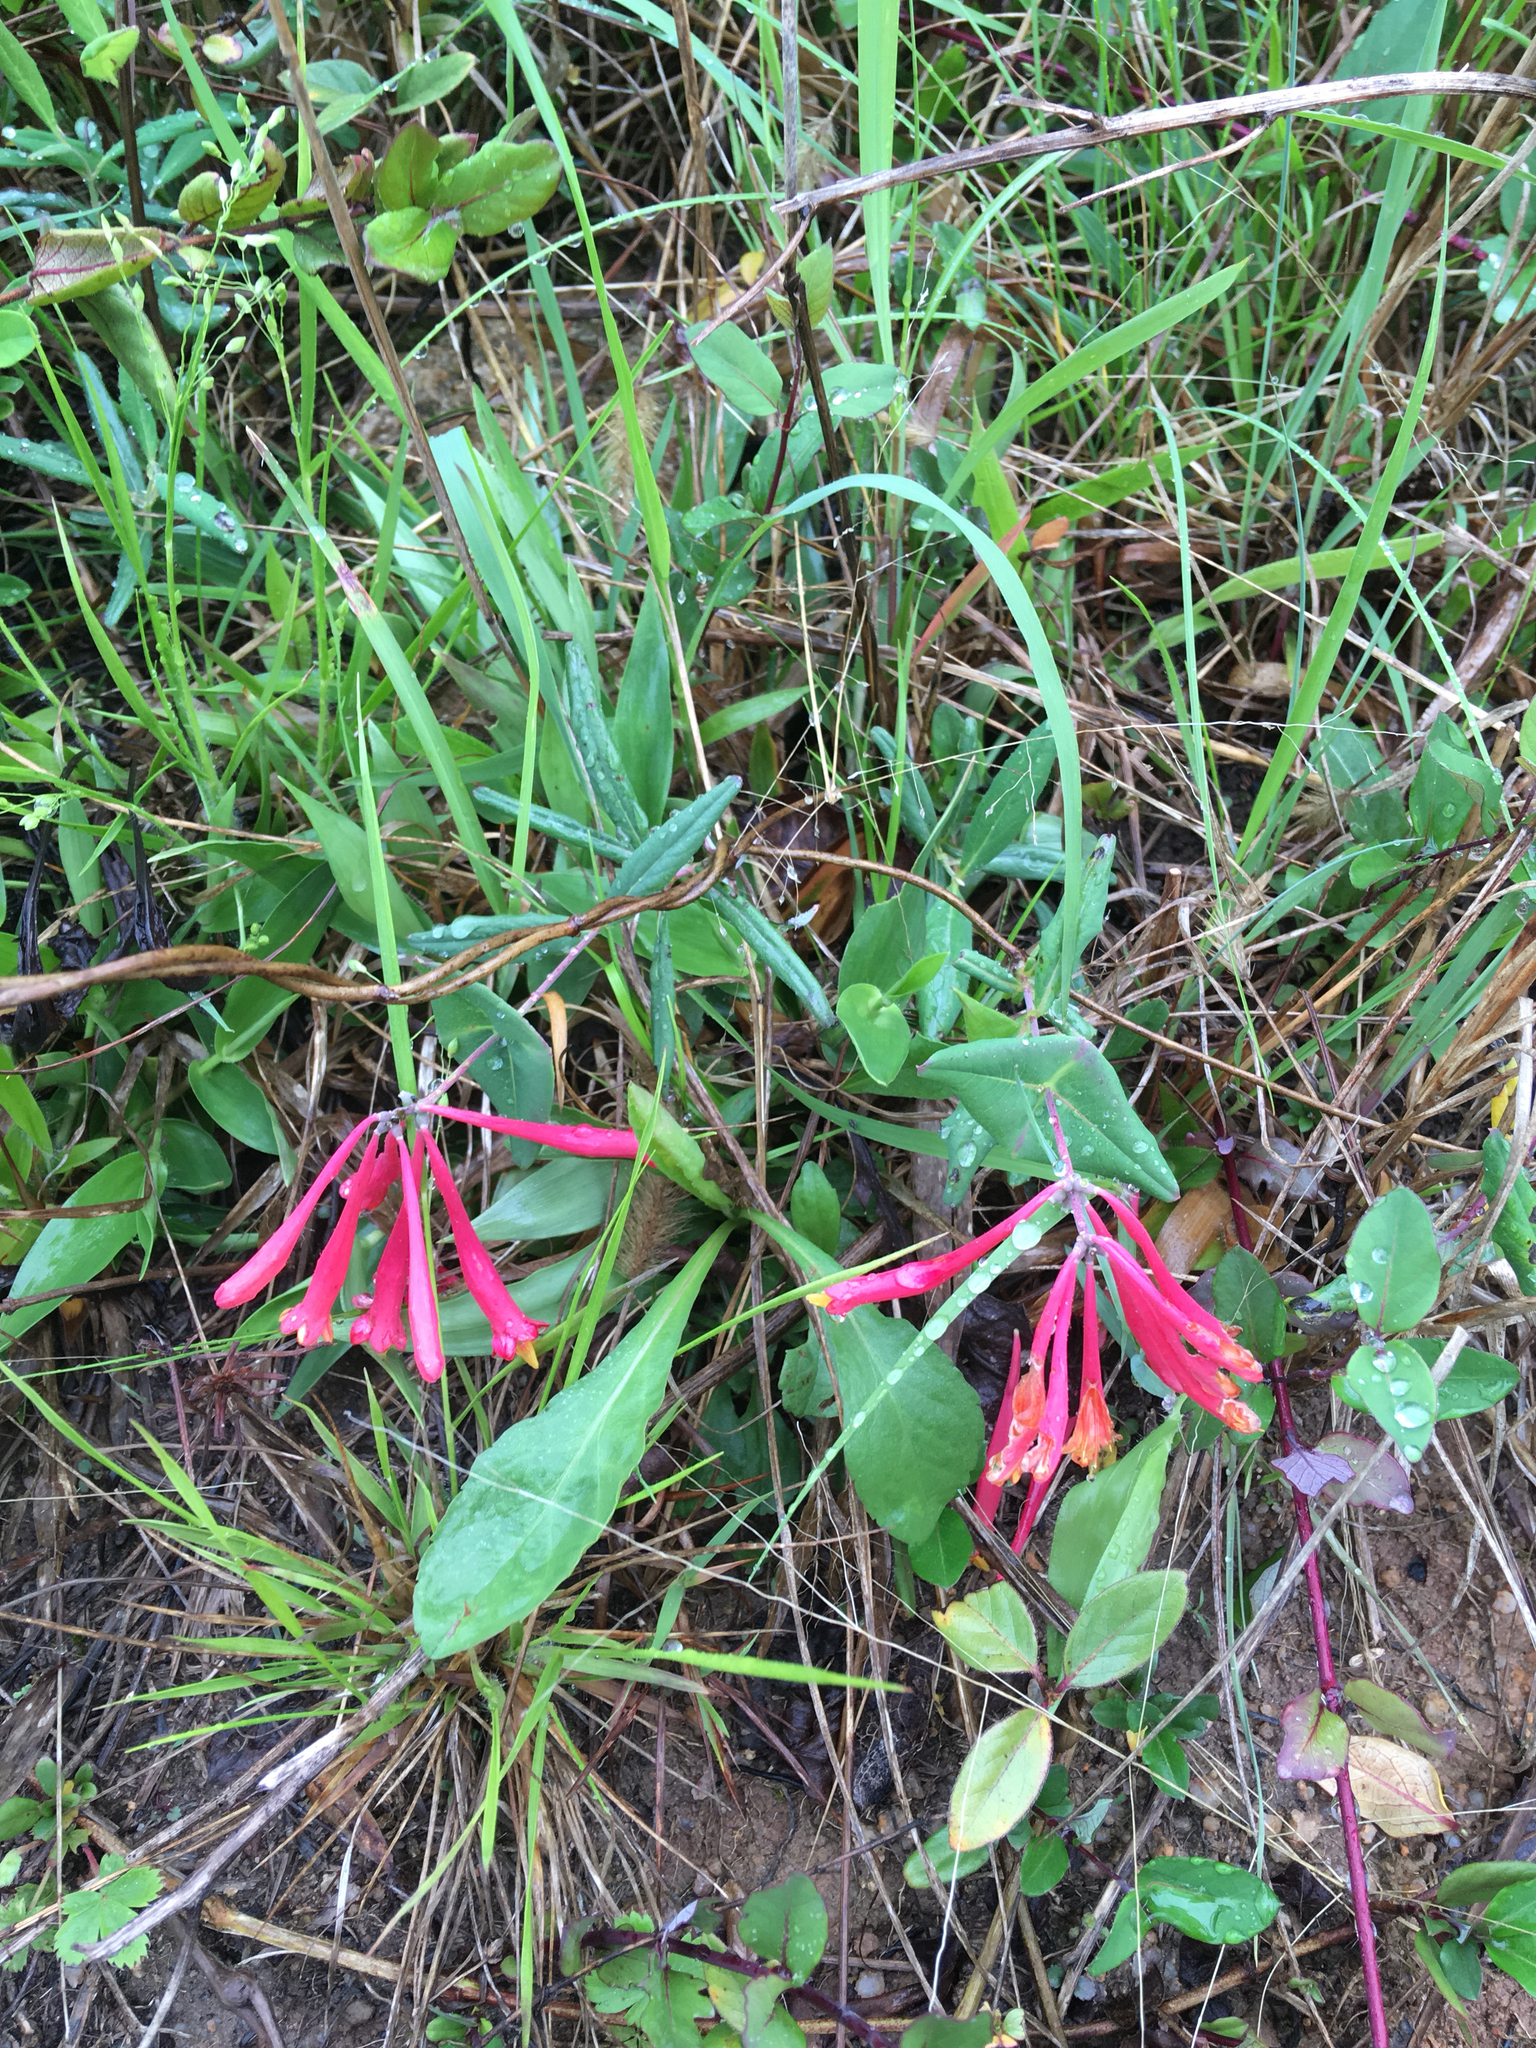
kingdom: Plantae
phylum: Tracheophyta
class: Magnoliopsida
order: Dipsacales
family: Caprifoliaceae
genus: Lonicera
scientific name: Lonicera sempervirens
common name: Coral honeysuckle
